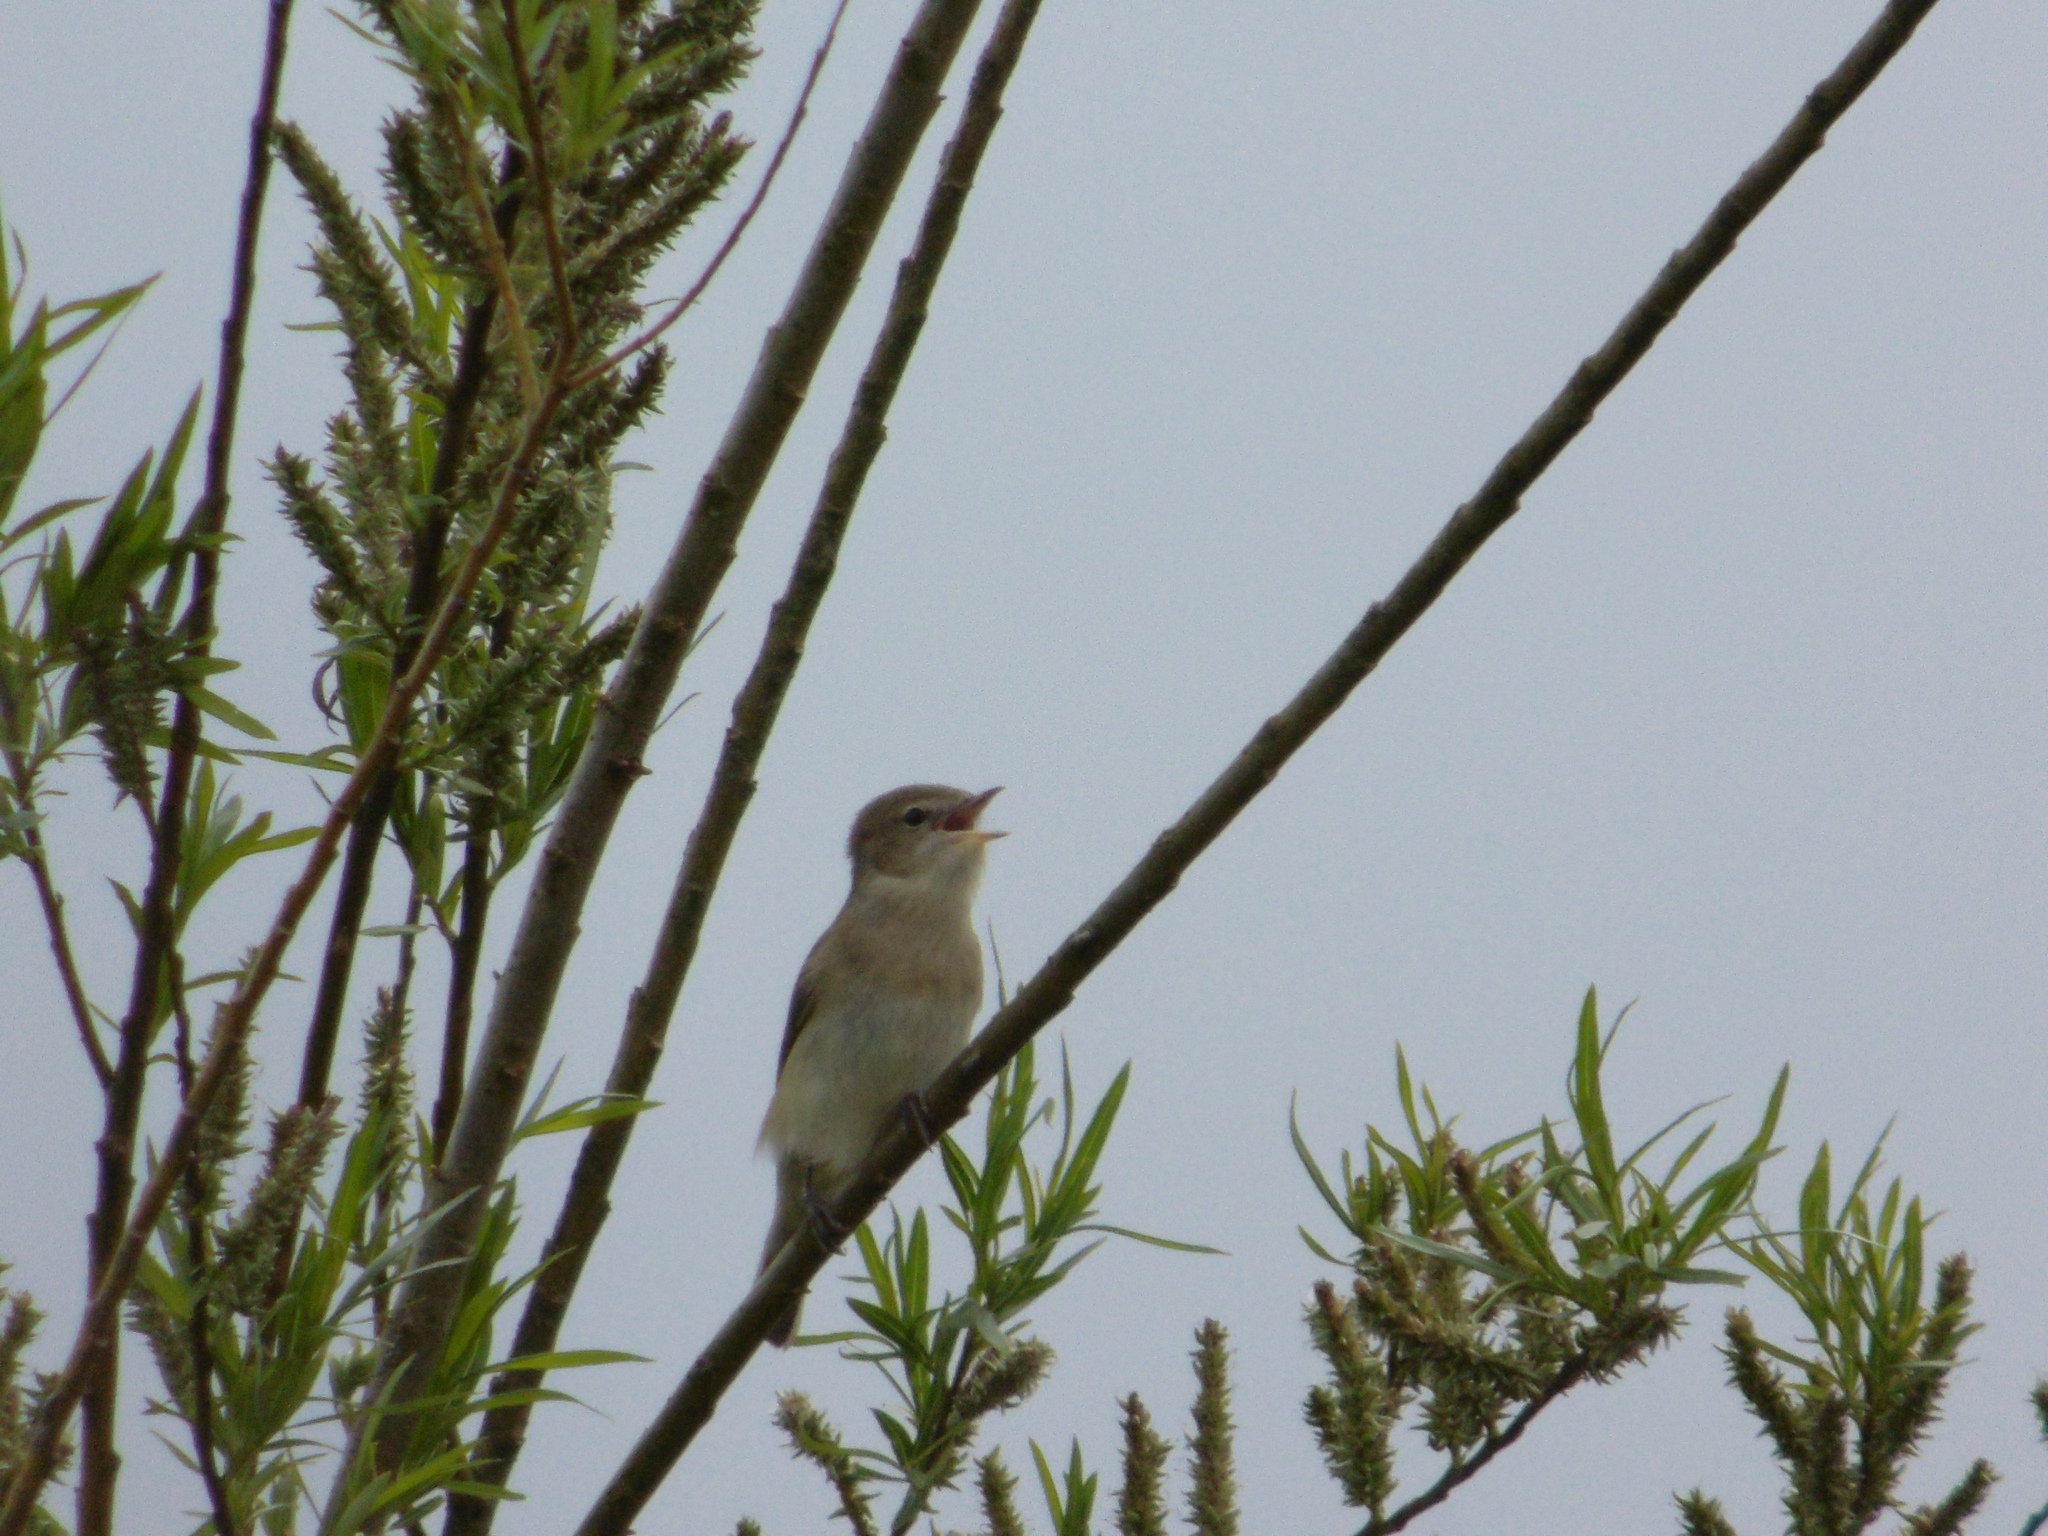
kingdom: Animalia
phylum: Chordata
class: Aves
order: Passeriformes
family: Sylviidae
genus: Sylvia
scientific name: Sylvia borin
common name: Garden warbler
